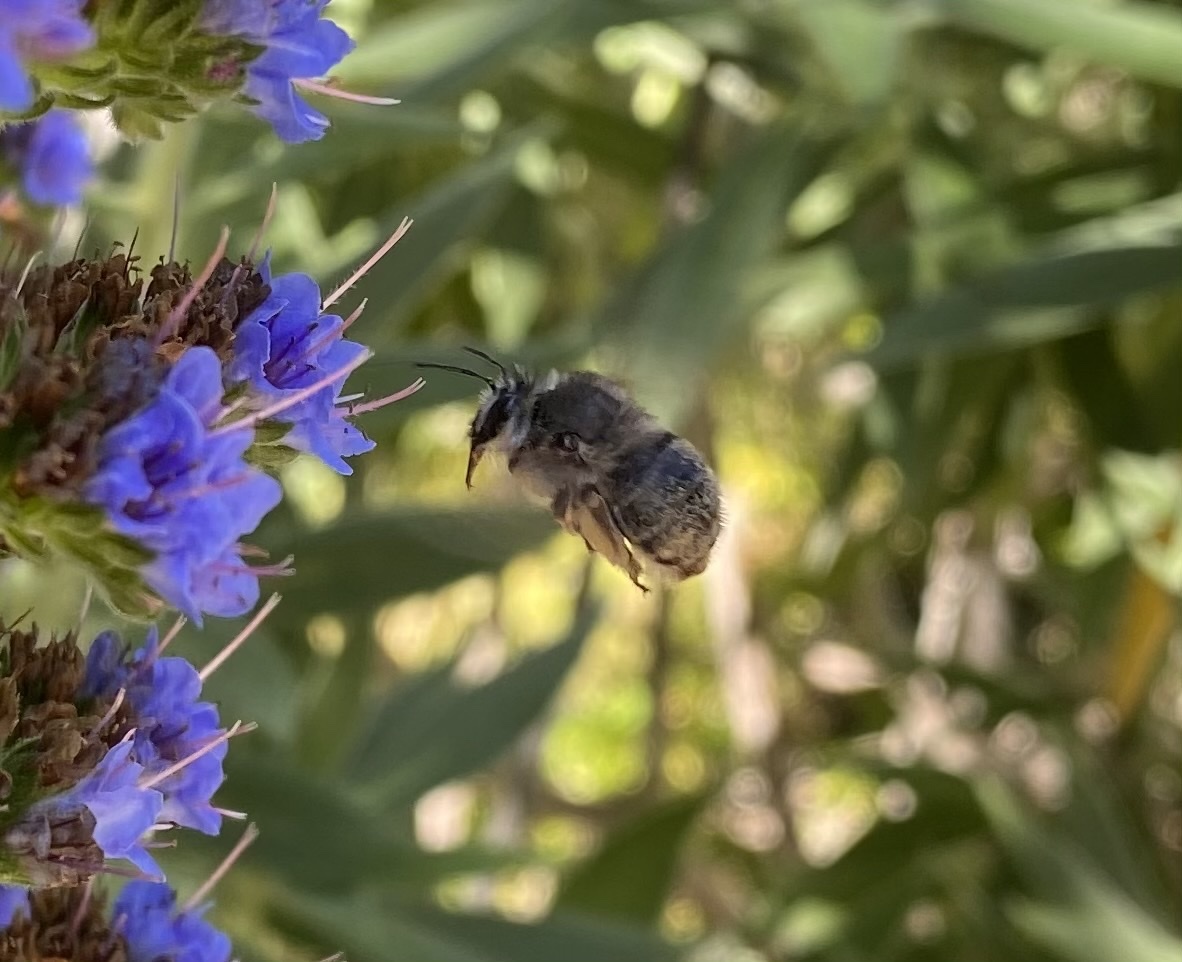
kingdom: Animalia
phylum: Arthropoda
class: Insecta
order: Hymenoptera
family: Apidae
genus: Habropoda
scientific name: Habropoda depressa
